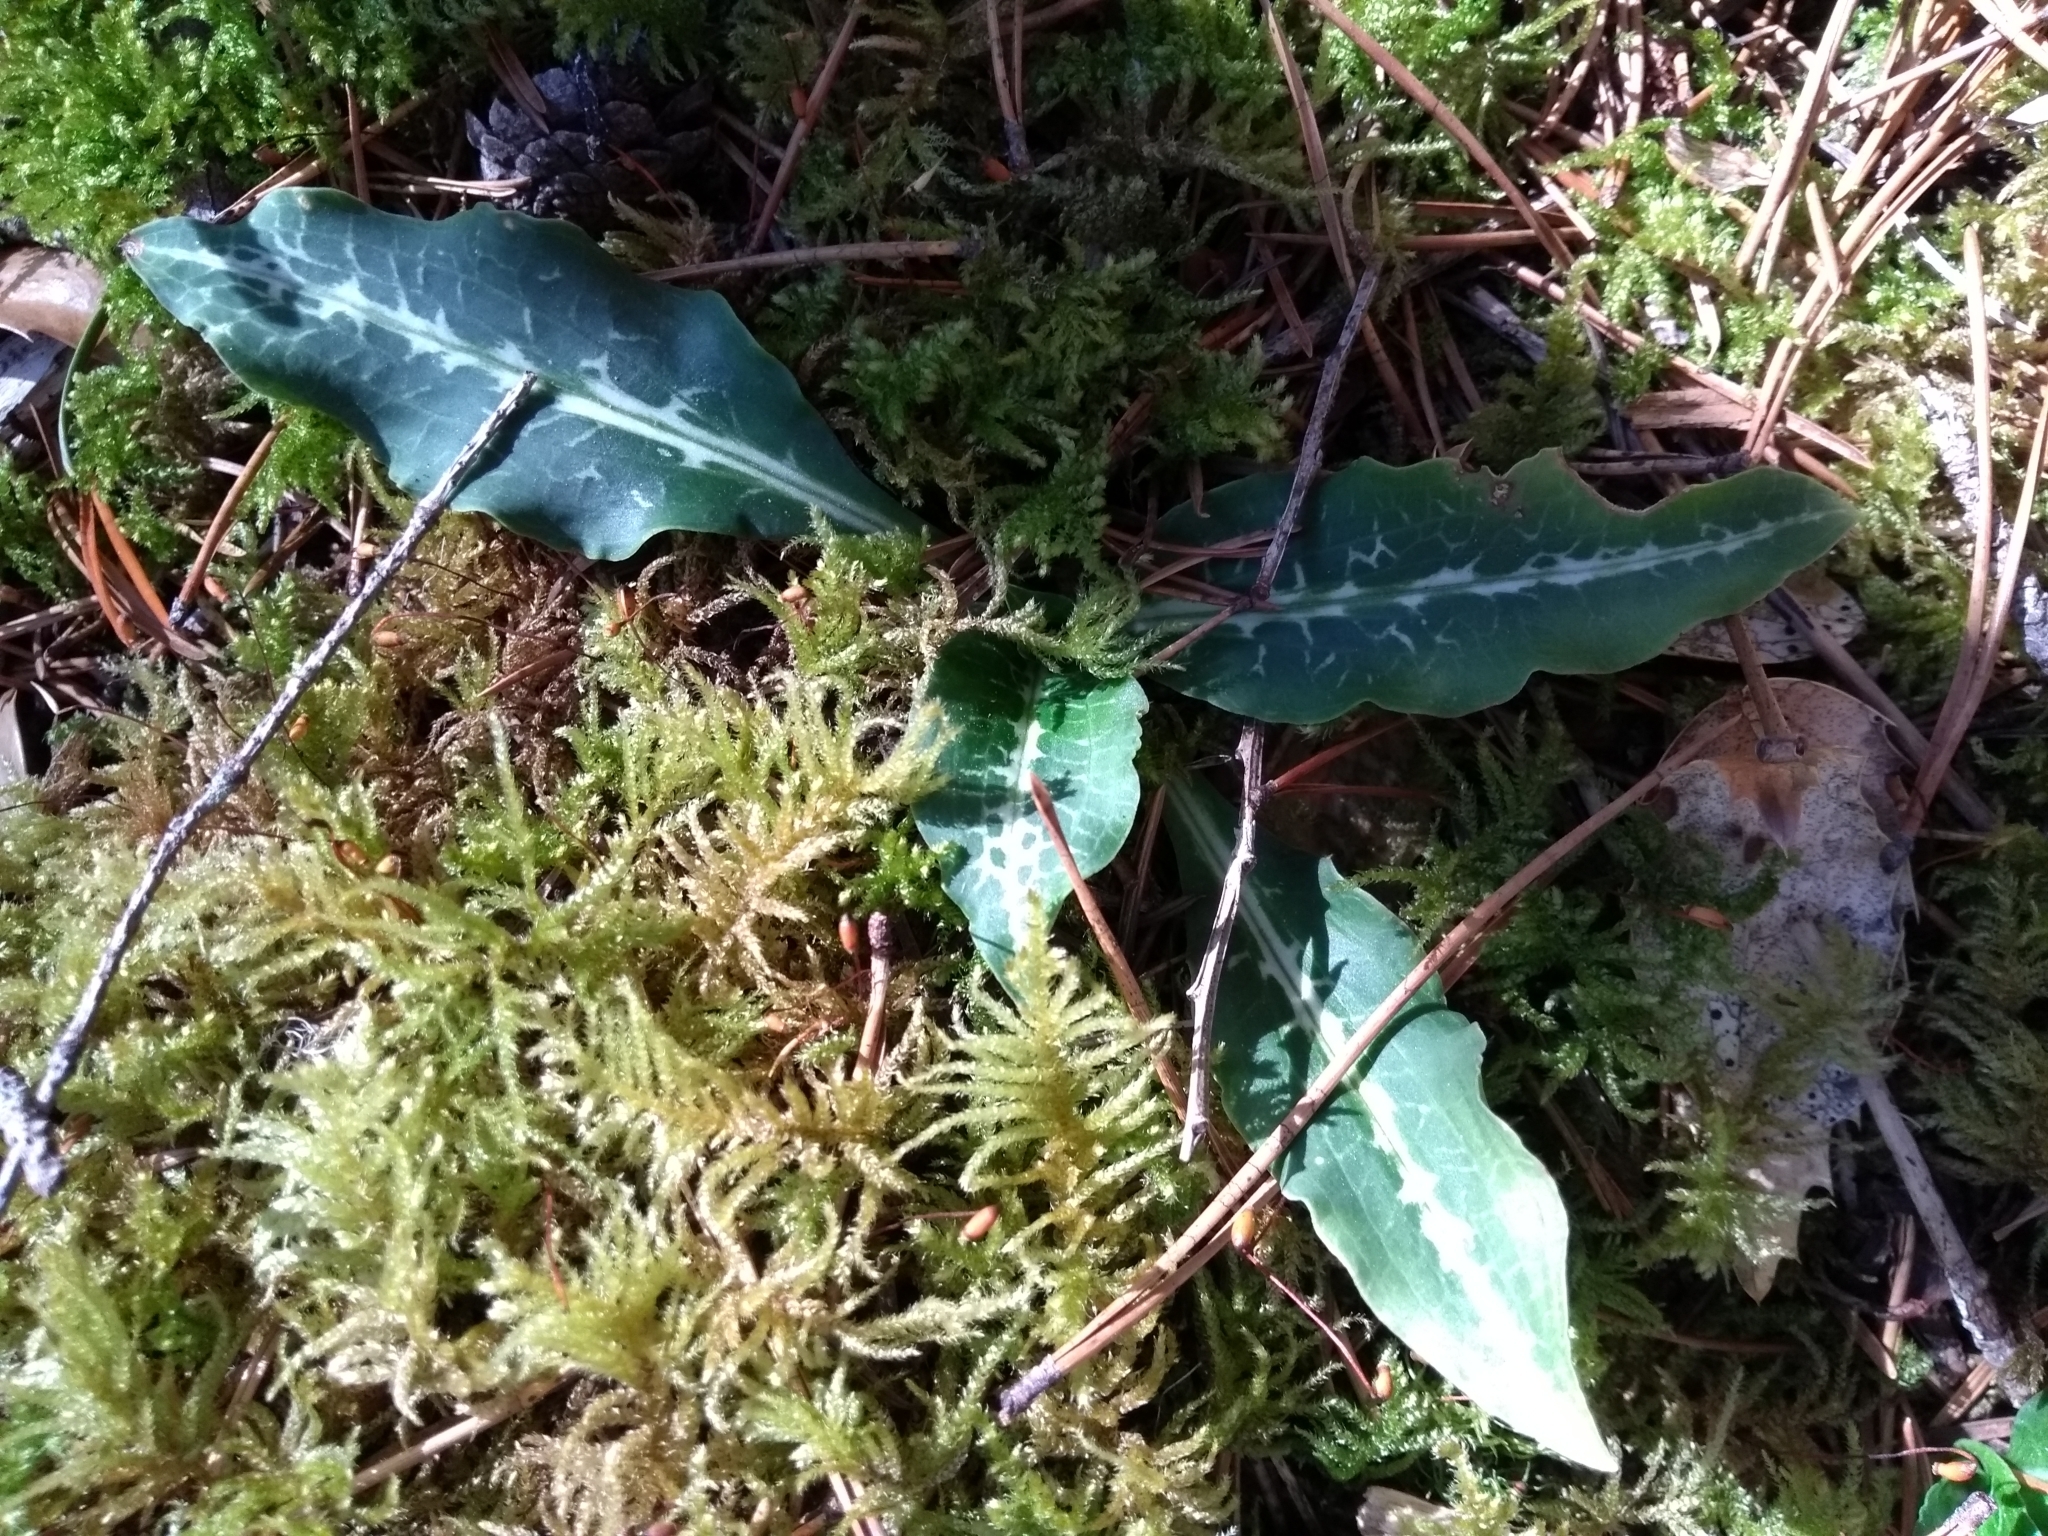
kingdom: Plantae
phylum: Tracheophyta
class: Liliopsida
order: Asparagales
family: Orchidaceae
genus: Goodyera
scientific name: Goodyera oblongifolia
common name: Giant rattlesnake-plantain
